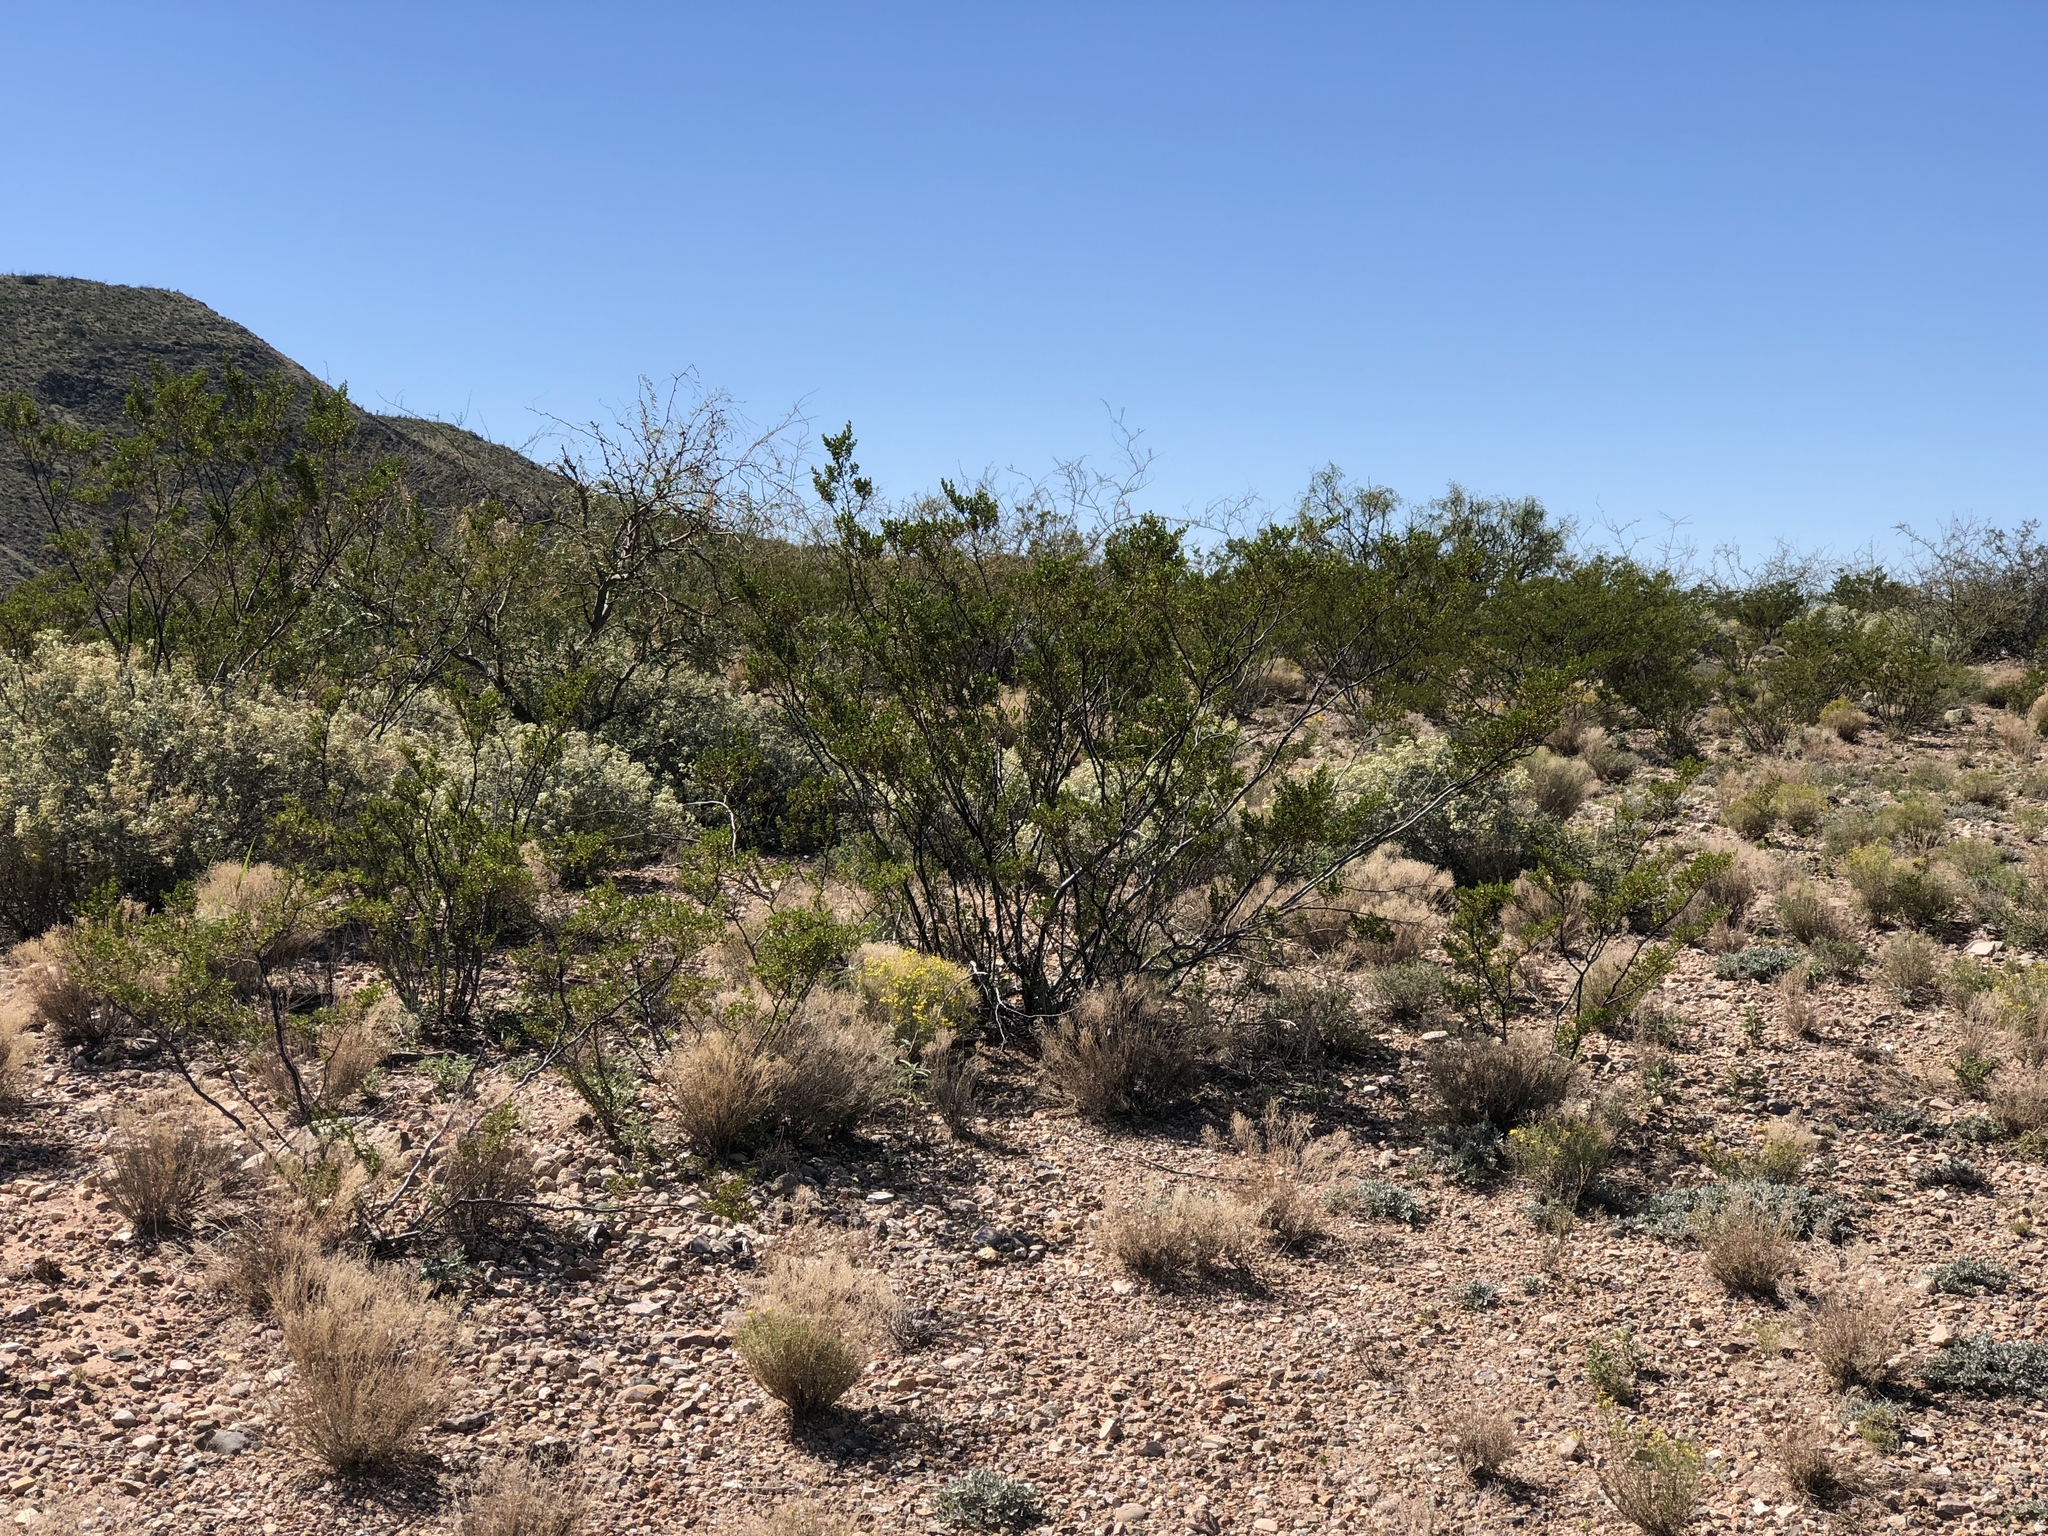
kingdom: Plantae
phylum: Tracheophyta
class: Magnoliopsida
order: Zygophyllales
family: Zygophyllaceae
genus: Larrea
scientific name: Larrea tridentata
